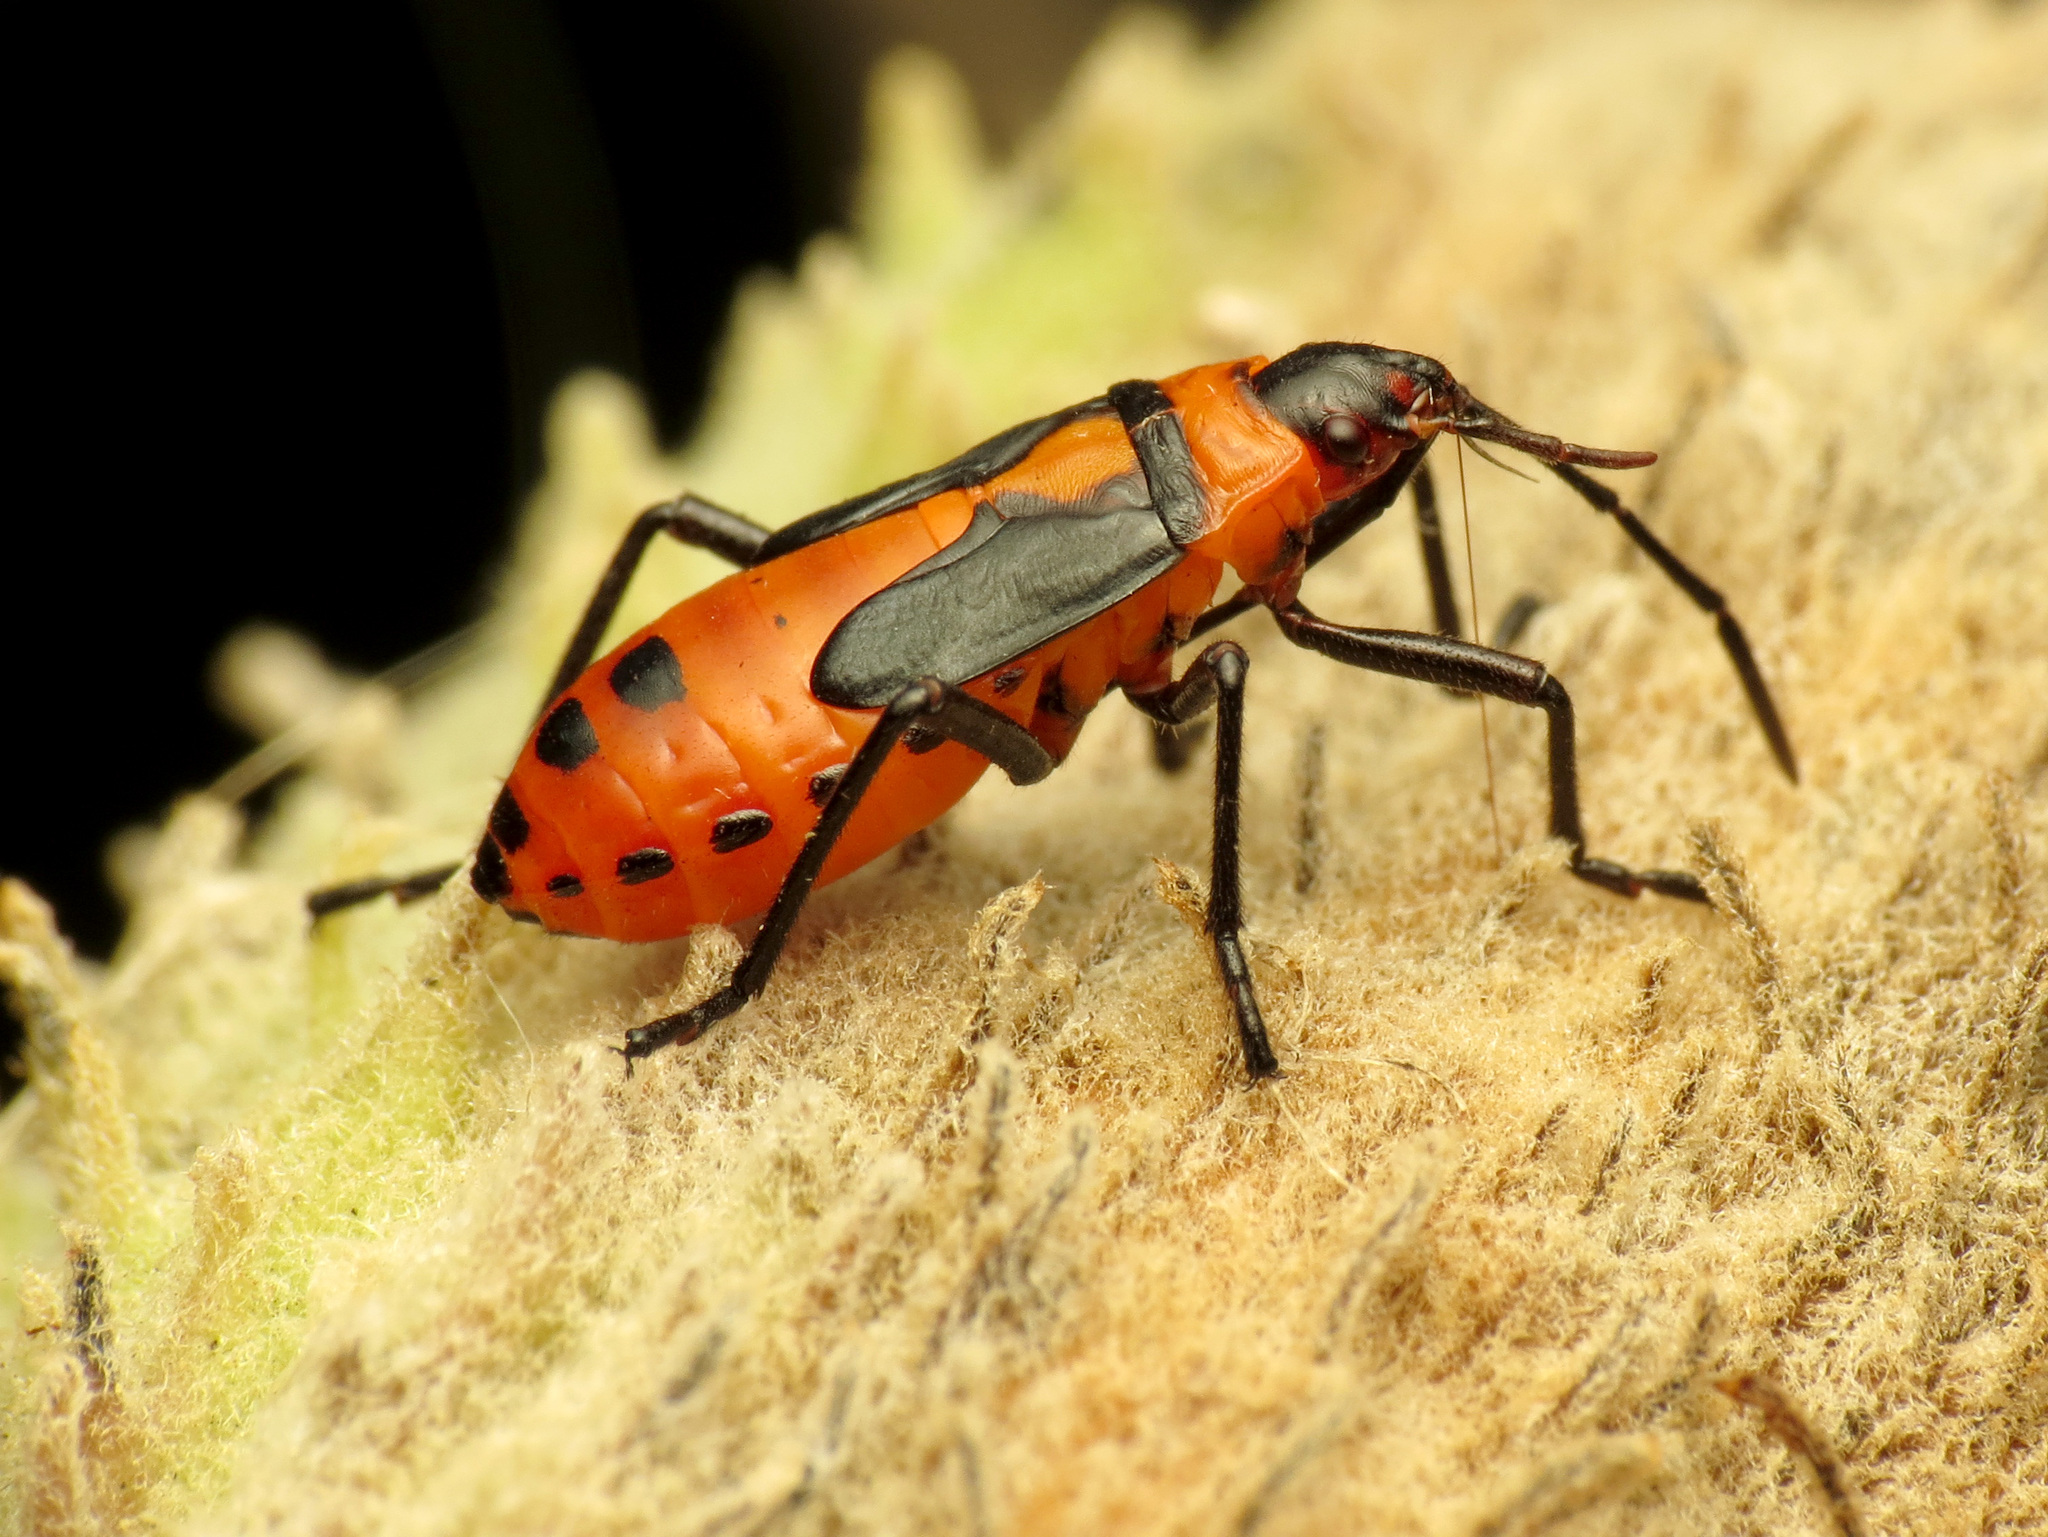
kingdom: Animalia
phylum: Arthropoda
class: Insecta
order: Hemiptera
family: Lygaeidae
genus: Oncopeltus
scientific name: Oncopeltus fasciatus
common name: Large milkweed bug
